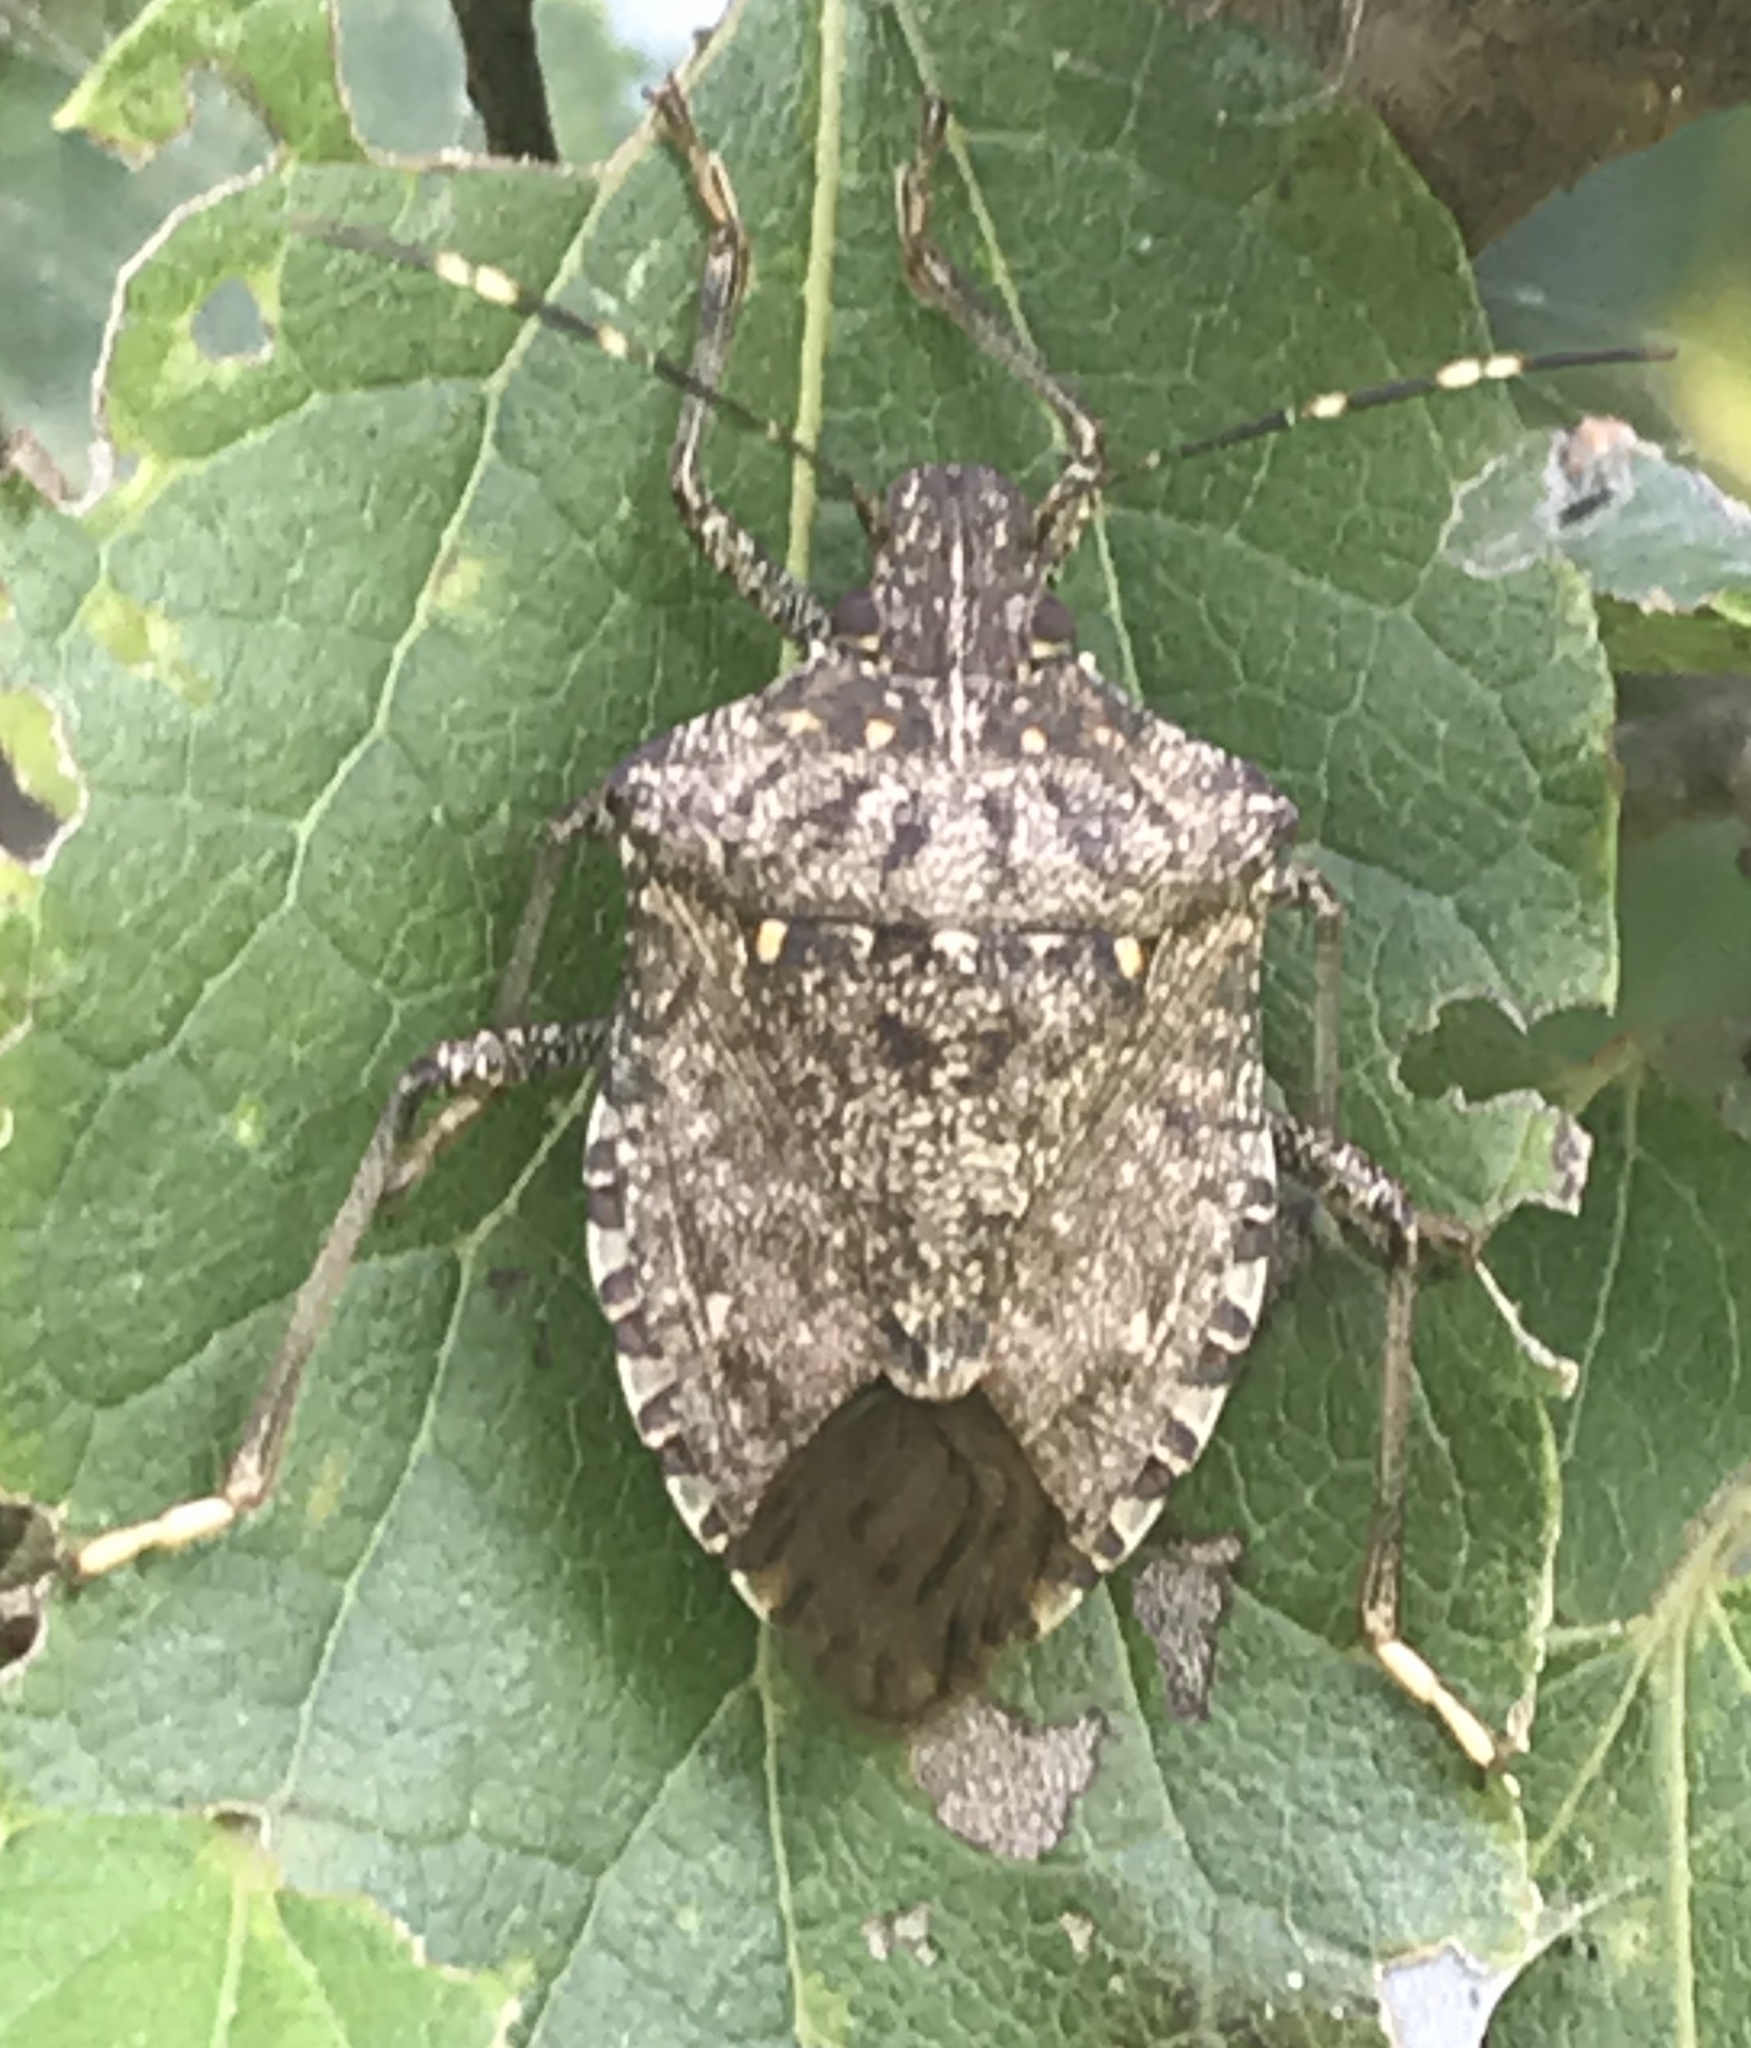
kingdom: Animalia
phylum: Arthropoda
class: Insecta
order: Hemiptera
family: Pentatomidae
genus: Halyomorpha
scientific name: Halyomorpha halys
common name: Brown marmorated stink bug
